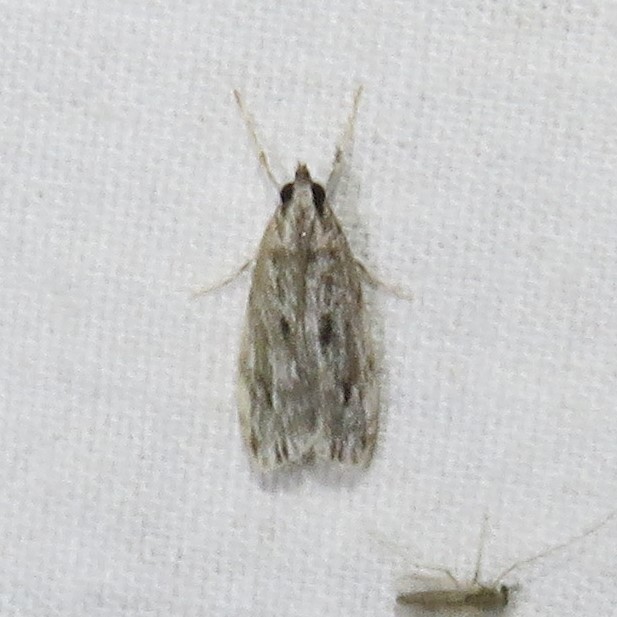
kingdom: Animalia
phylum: Arthropoda
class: Insecta
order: Lepidoptera
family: Crambidae
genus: Eudonia
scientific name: Eudonia strigalis
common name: Striped eudonia moth
